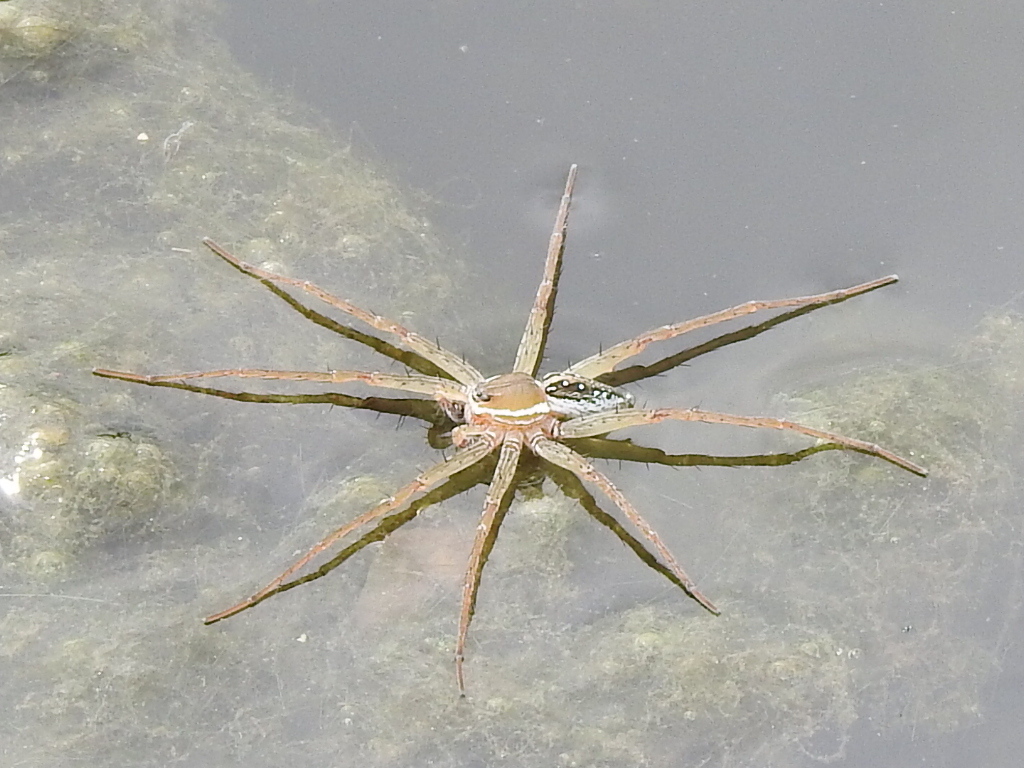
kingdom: Animalia
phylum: Arthropoda
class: Arachnida
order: Araneae
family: Pisauridae
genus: Dolomedes
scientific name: Dolomedes triton
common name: Six-spotted fishing spider
